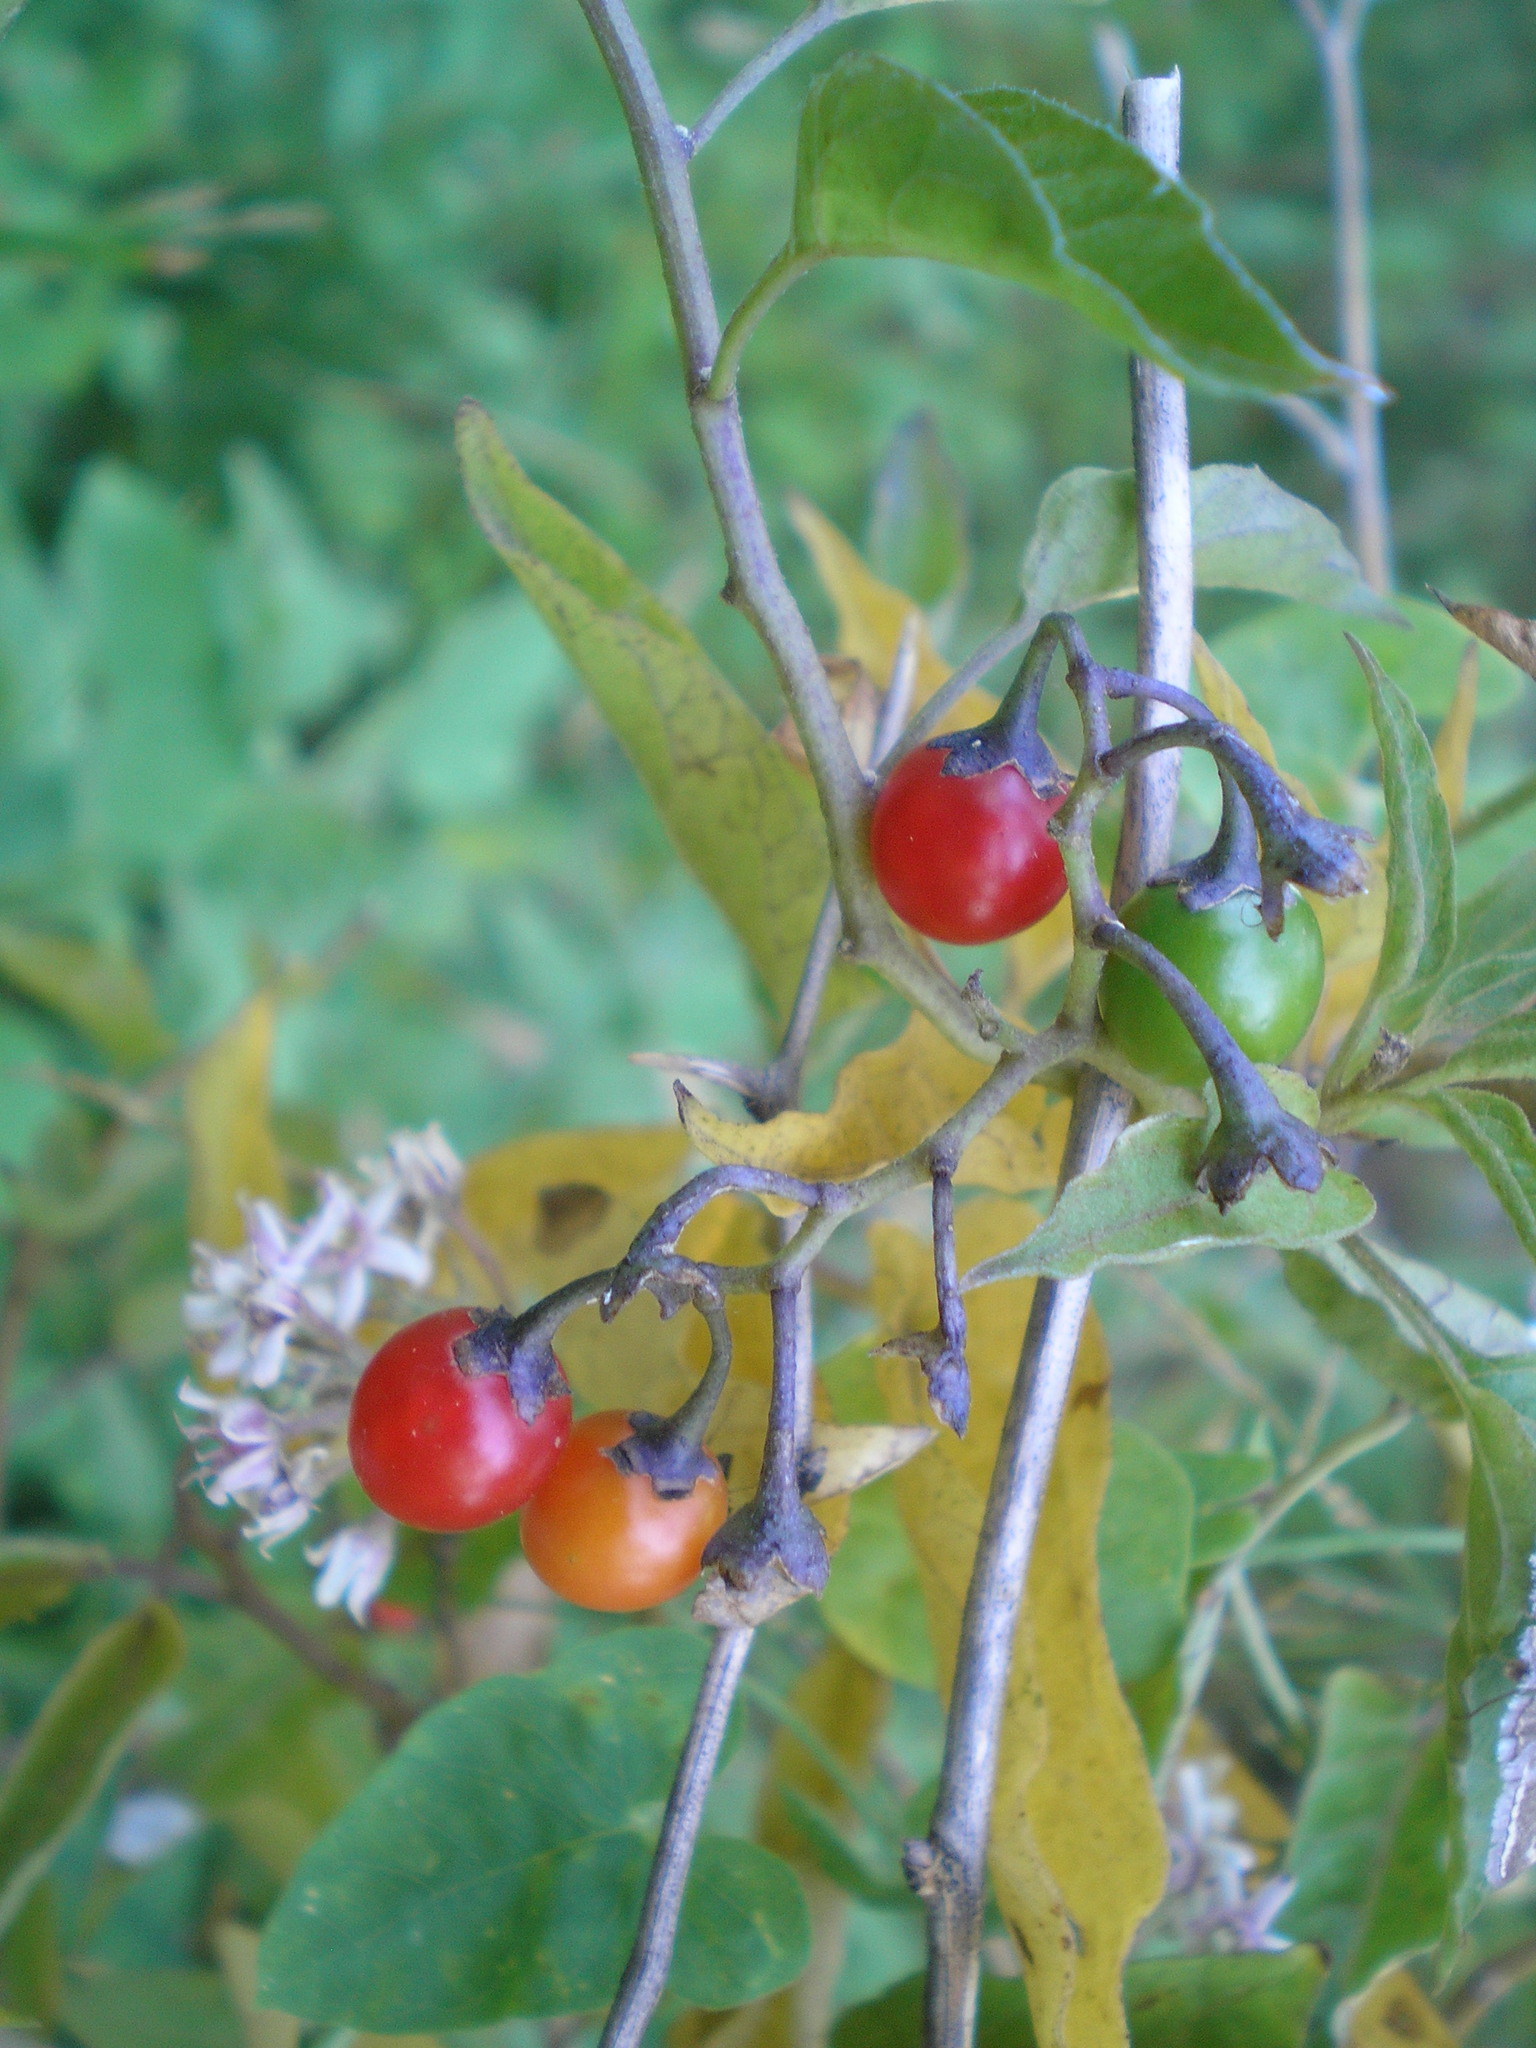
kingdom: Plantae
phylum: Tracheophyta
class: Magnoliopsida
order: Solanales
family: Solanaceae
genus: Solanum
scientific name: Solanum dulcamara
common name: Climbing nightshade
